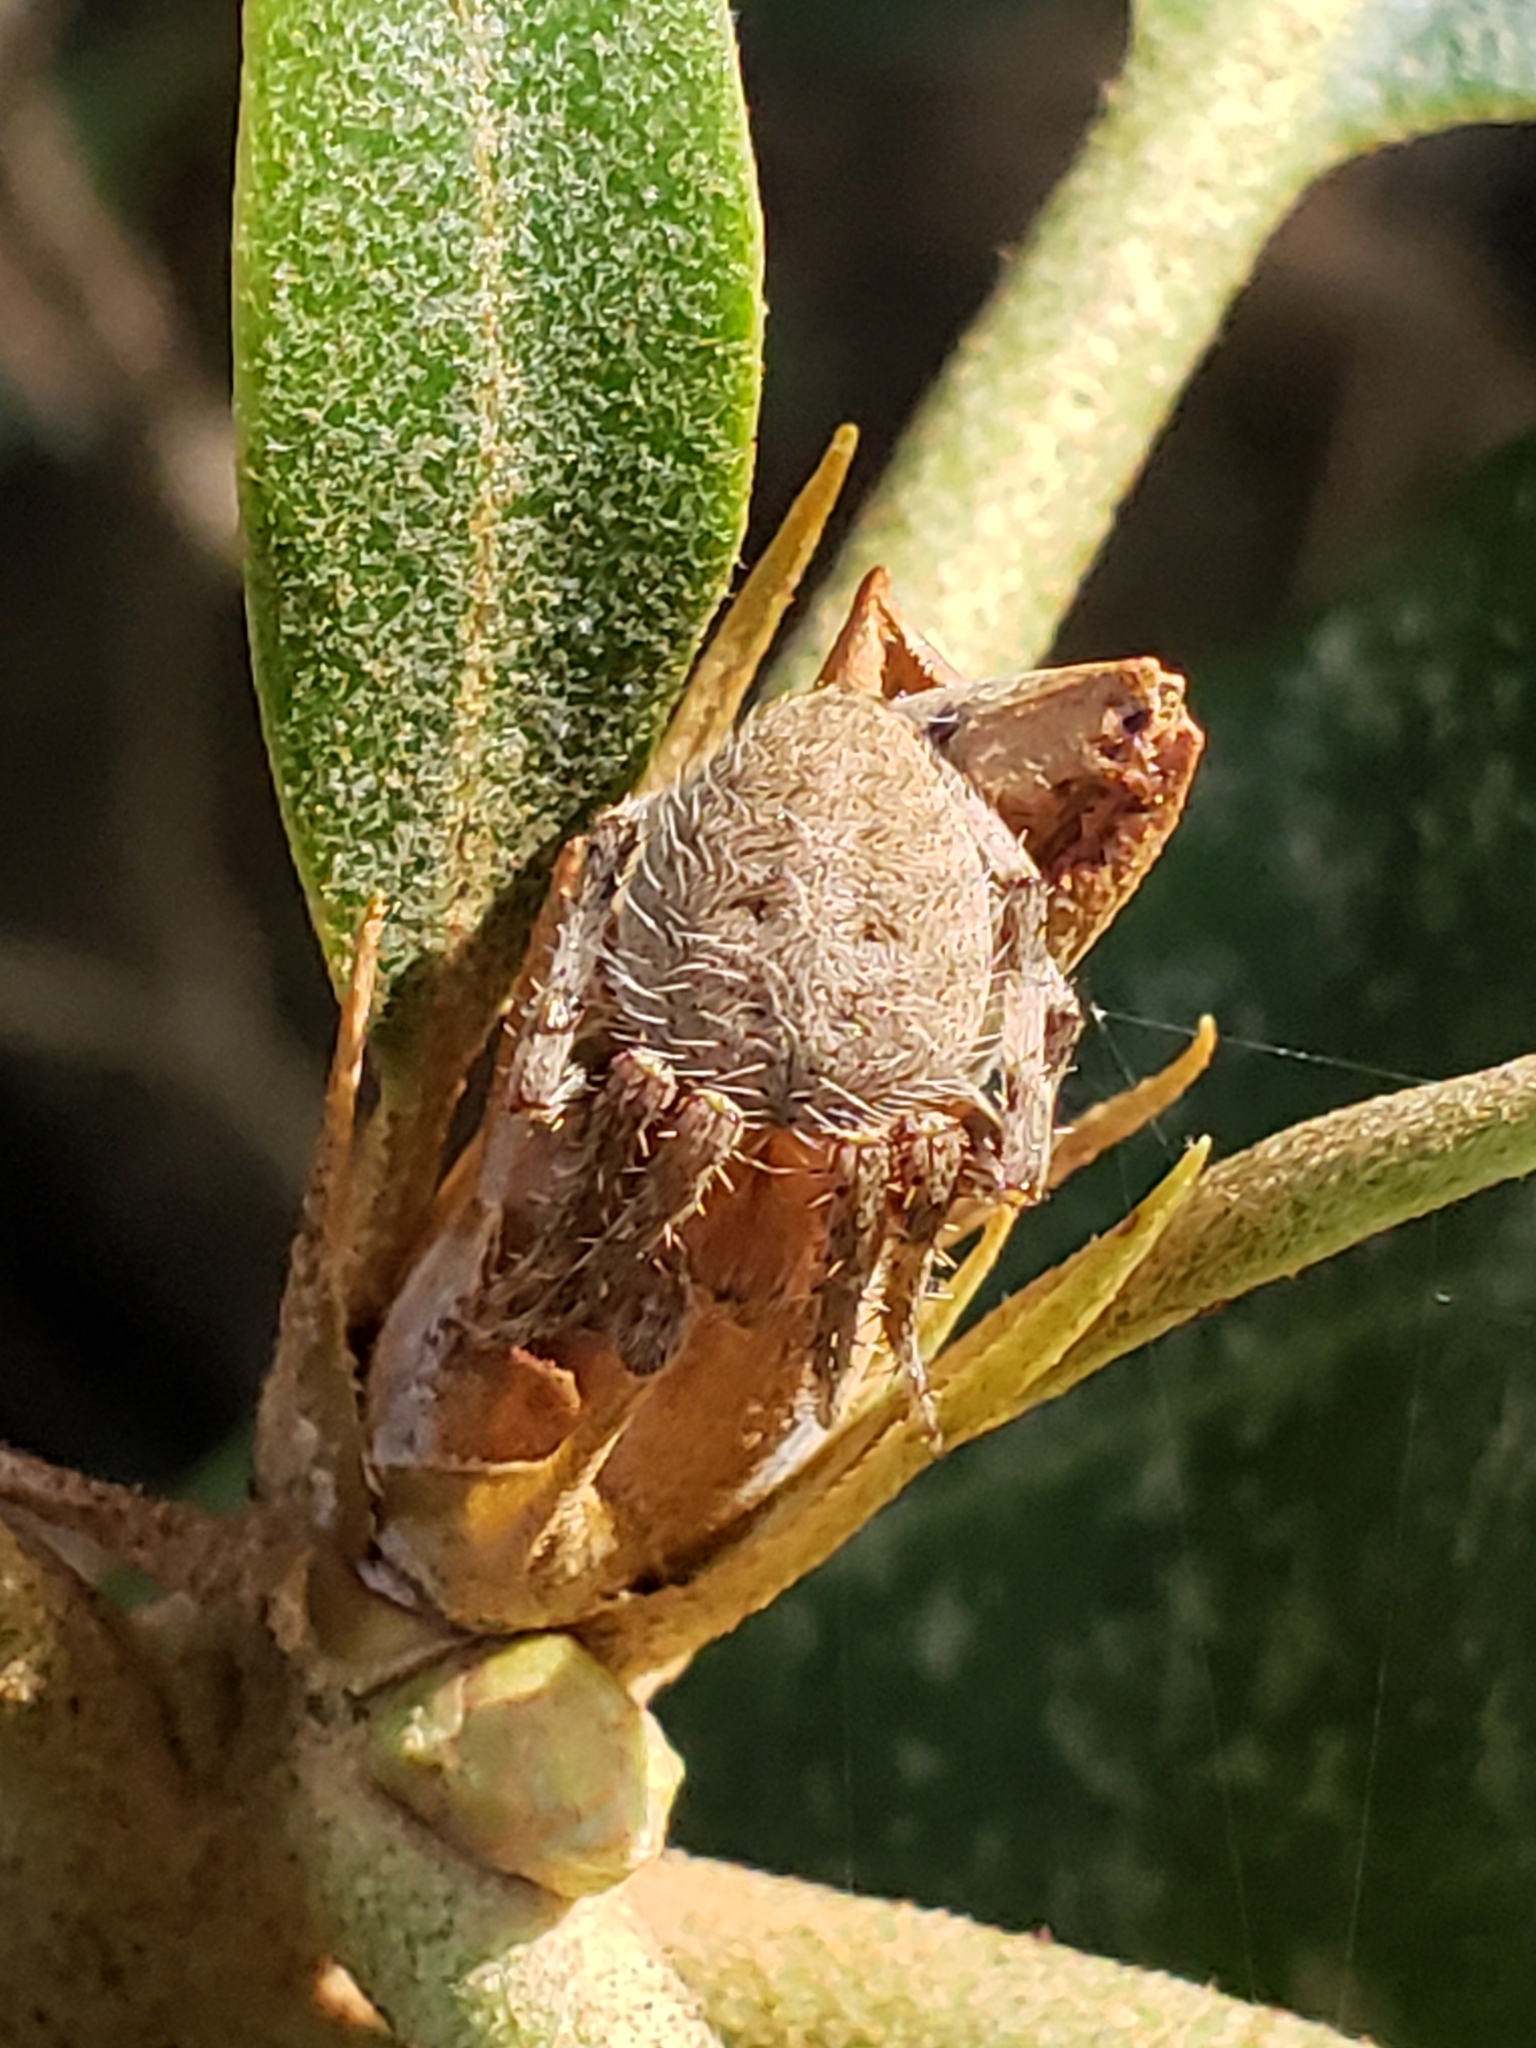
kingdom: Animalia
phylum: Arthropoda
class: Arachnida
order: Araneae
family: Araneidae
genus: Neoscona
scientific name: Neoscona crucifera
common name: Spotted orbweaver
